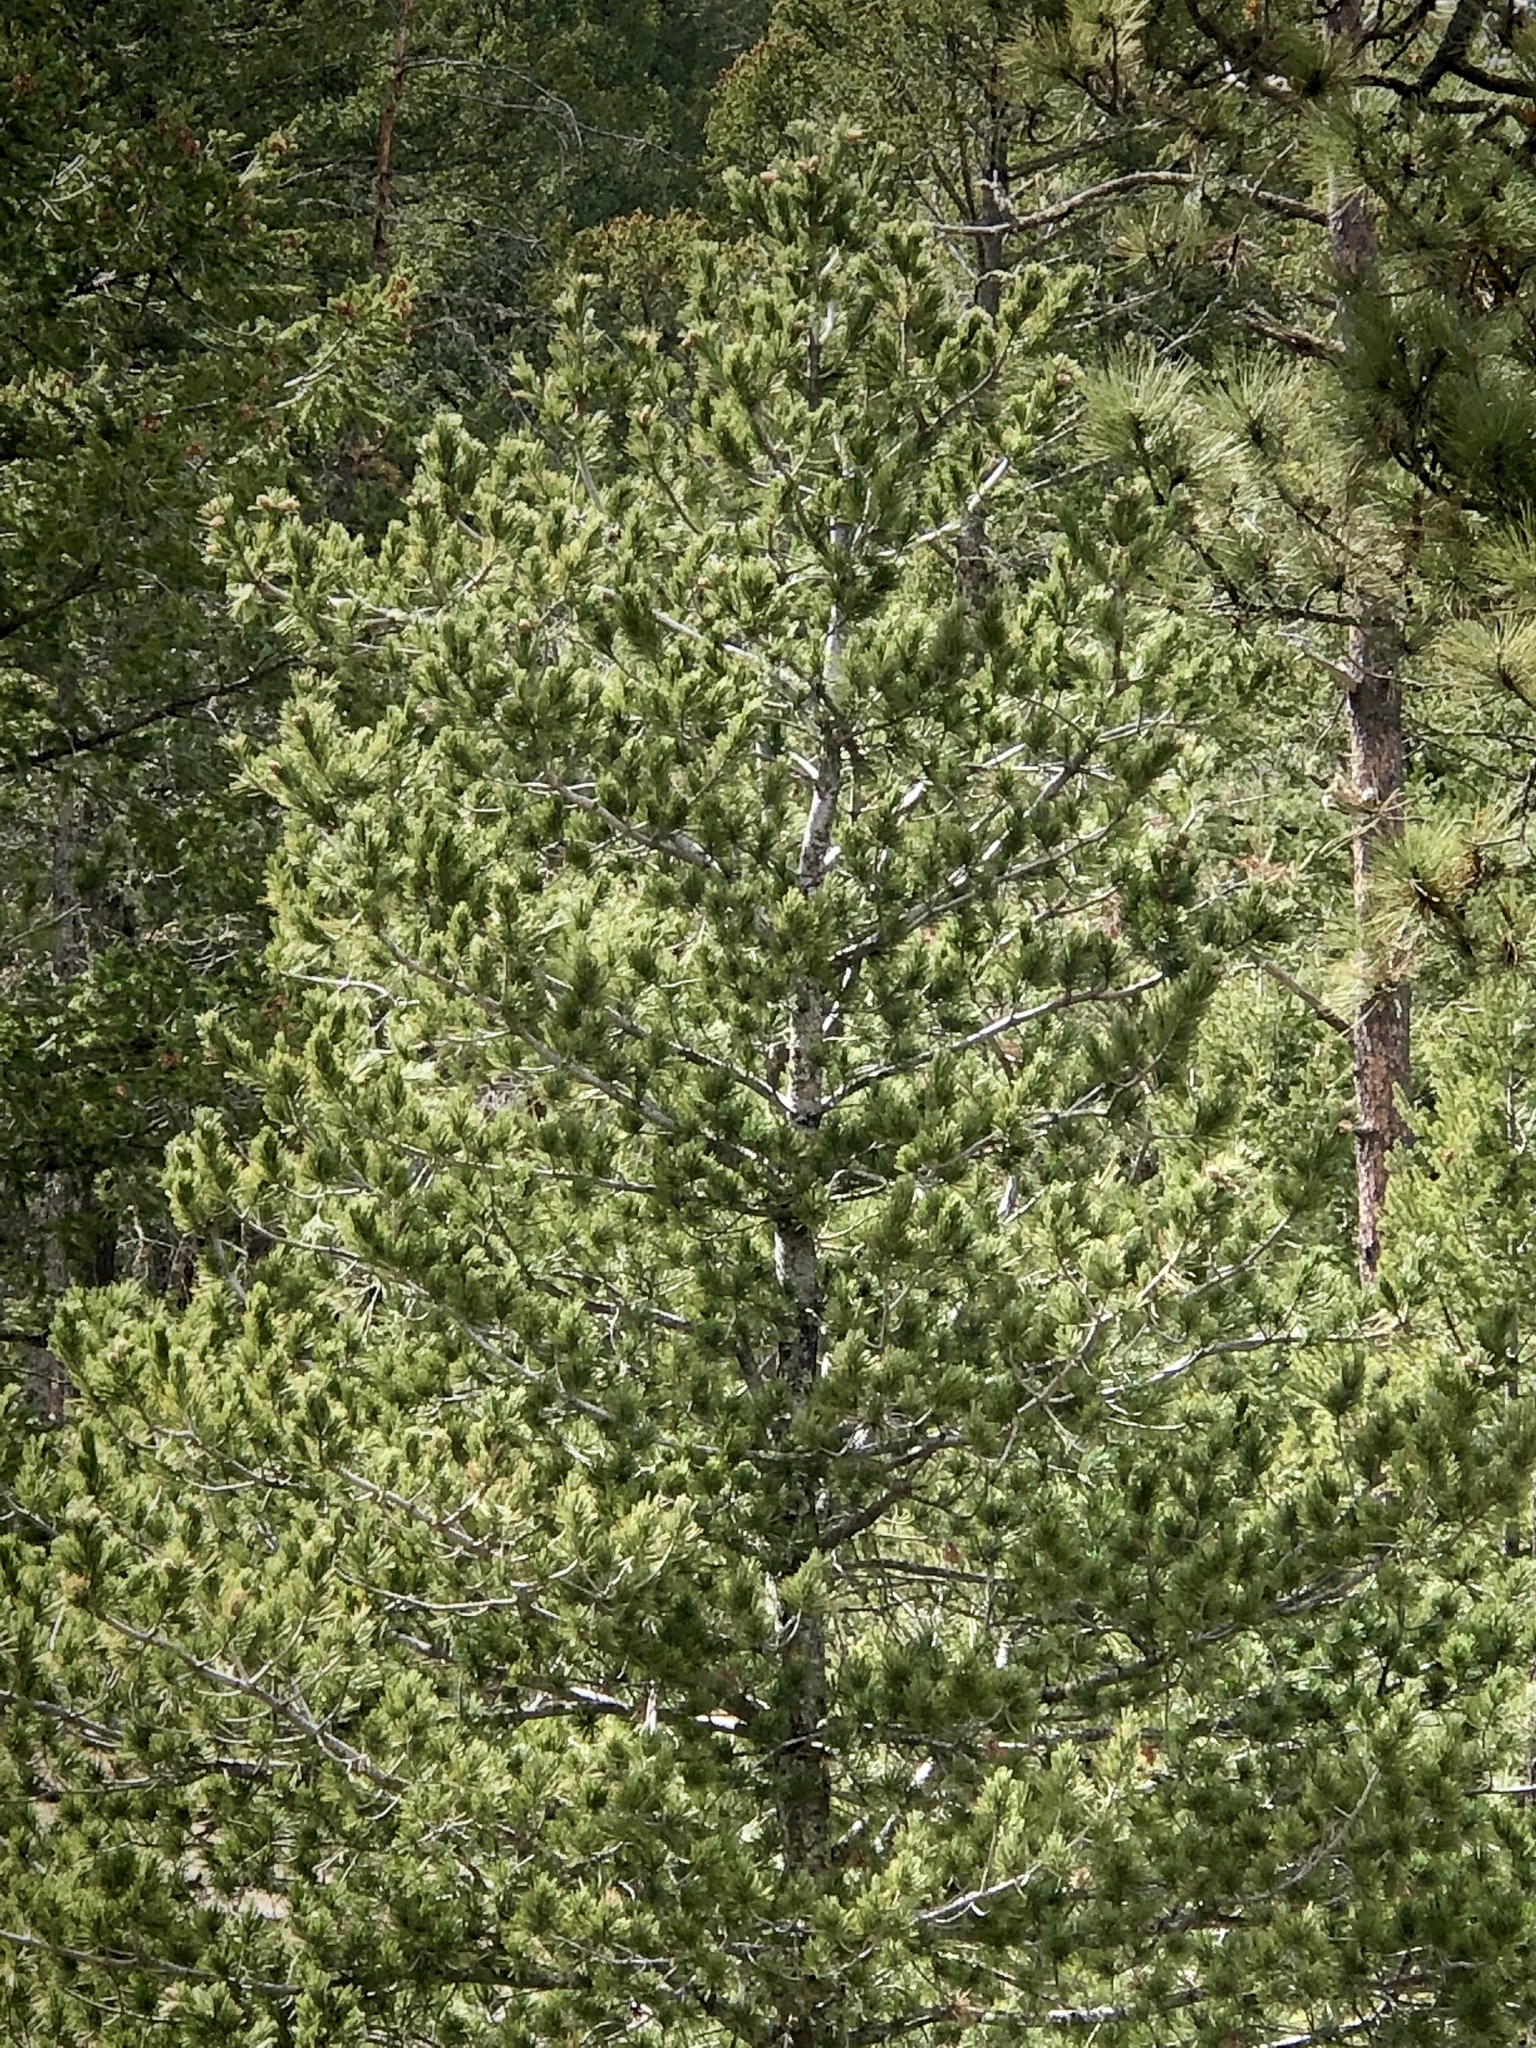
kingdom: Plantae
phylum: Tracheophyta
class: Pinopsida
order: Pinales
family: Pinaceae
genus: Pinus
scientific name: Pinus strobiformis
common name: Southwestern white pine
